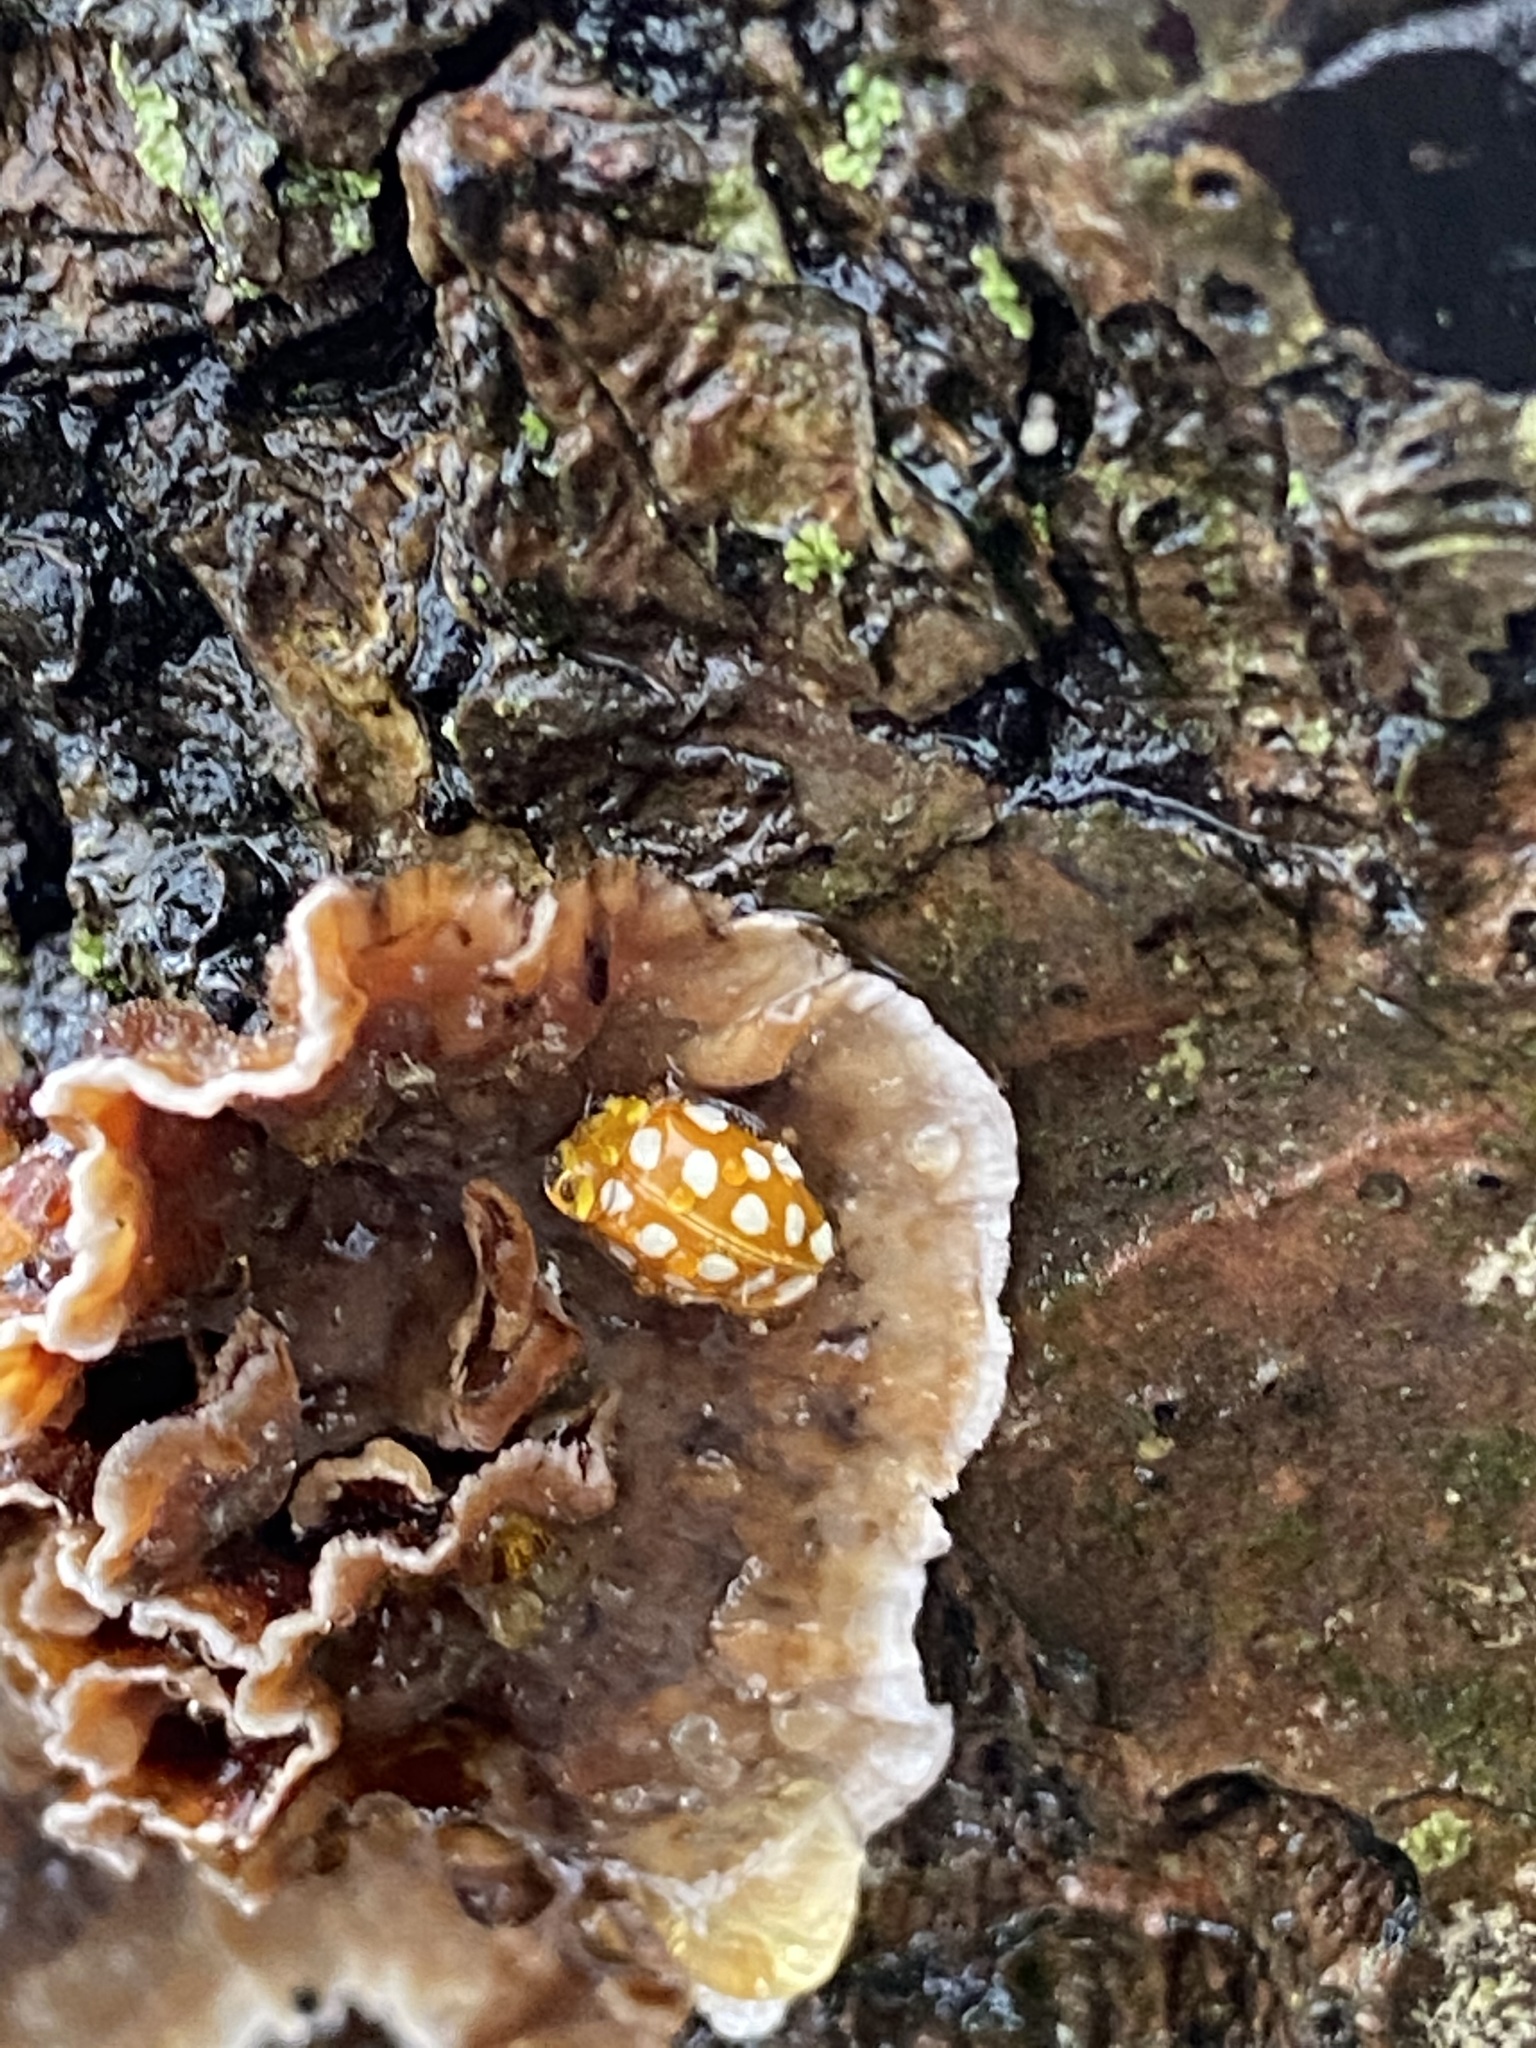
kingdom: Animalia
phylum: Arthropoda
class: Insecta
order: Coleoptera
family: Coccinellidae
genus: Halyzia
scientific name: Halyzia sedecimguttata
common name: Orange ladybird
